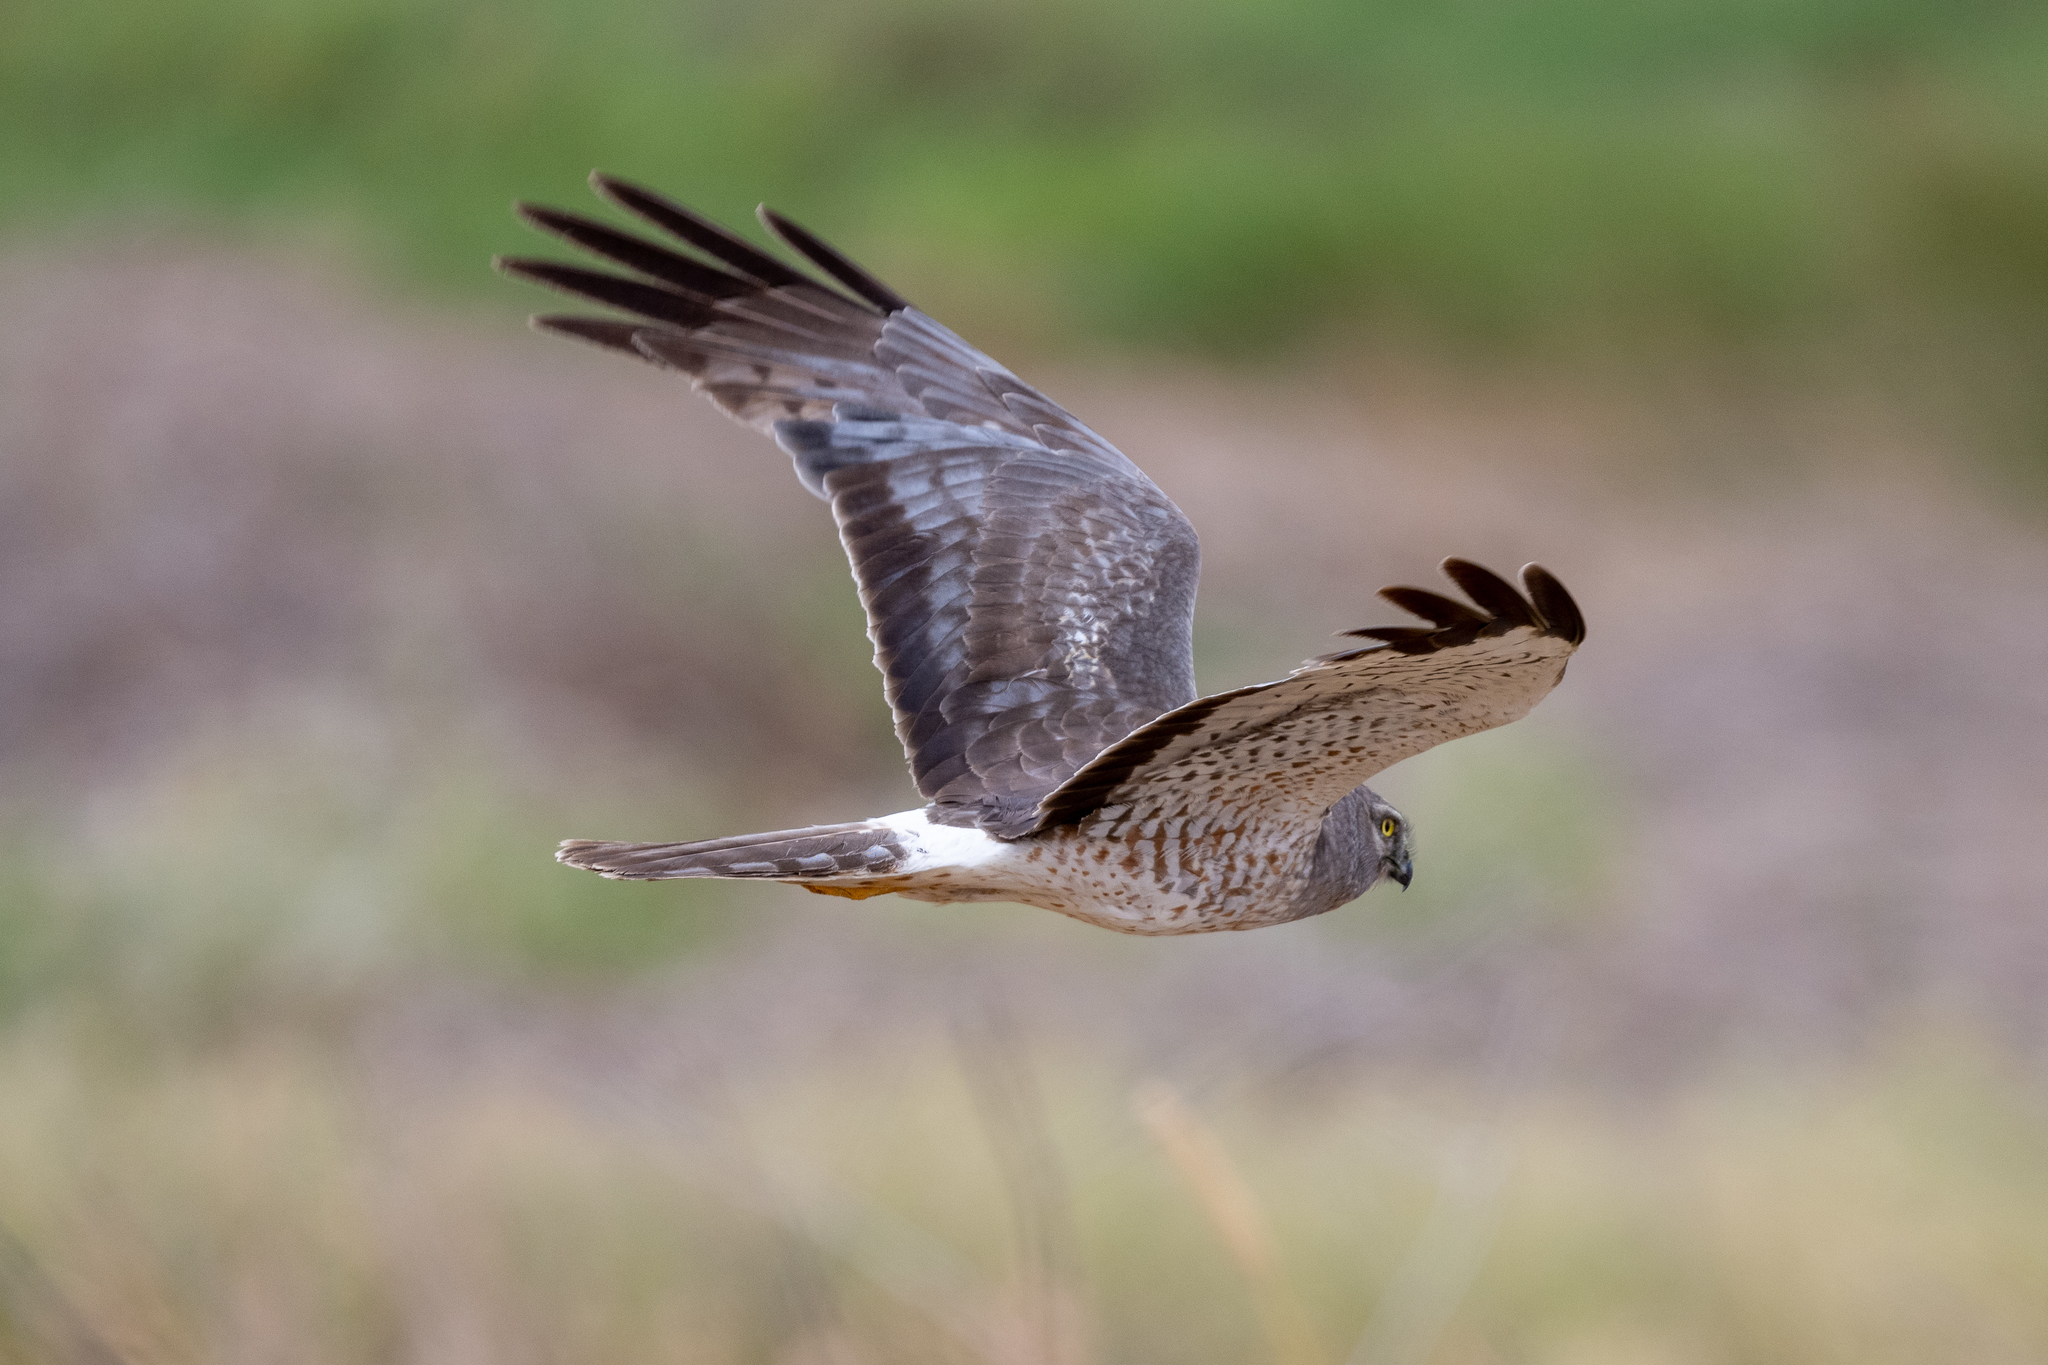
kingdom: Animalia
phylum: Chordata
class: Aves
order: Accipitriformes
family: Accipitridae
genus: Circus
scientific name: Circus cyaneus
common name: Hen harrier
